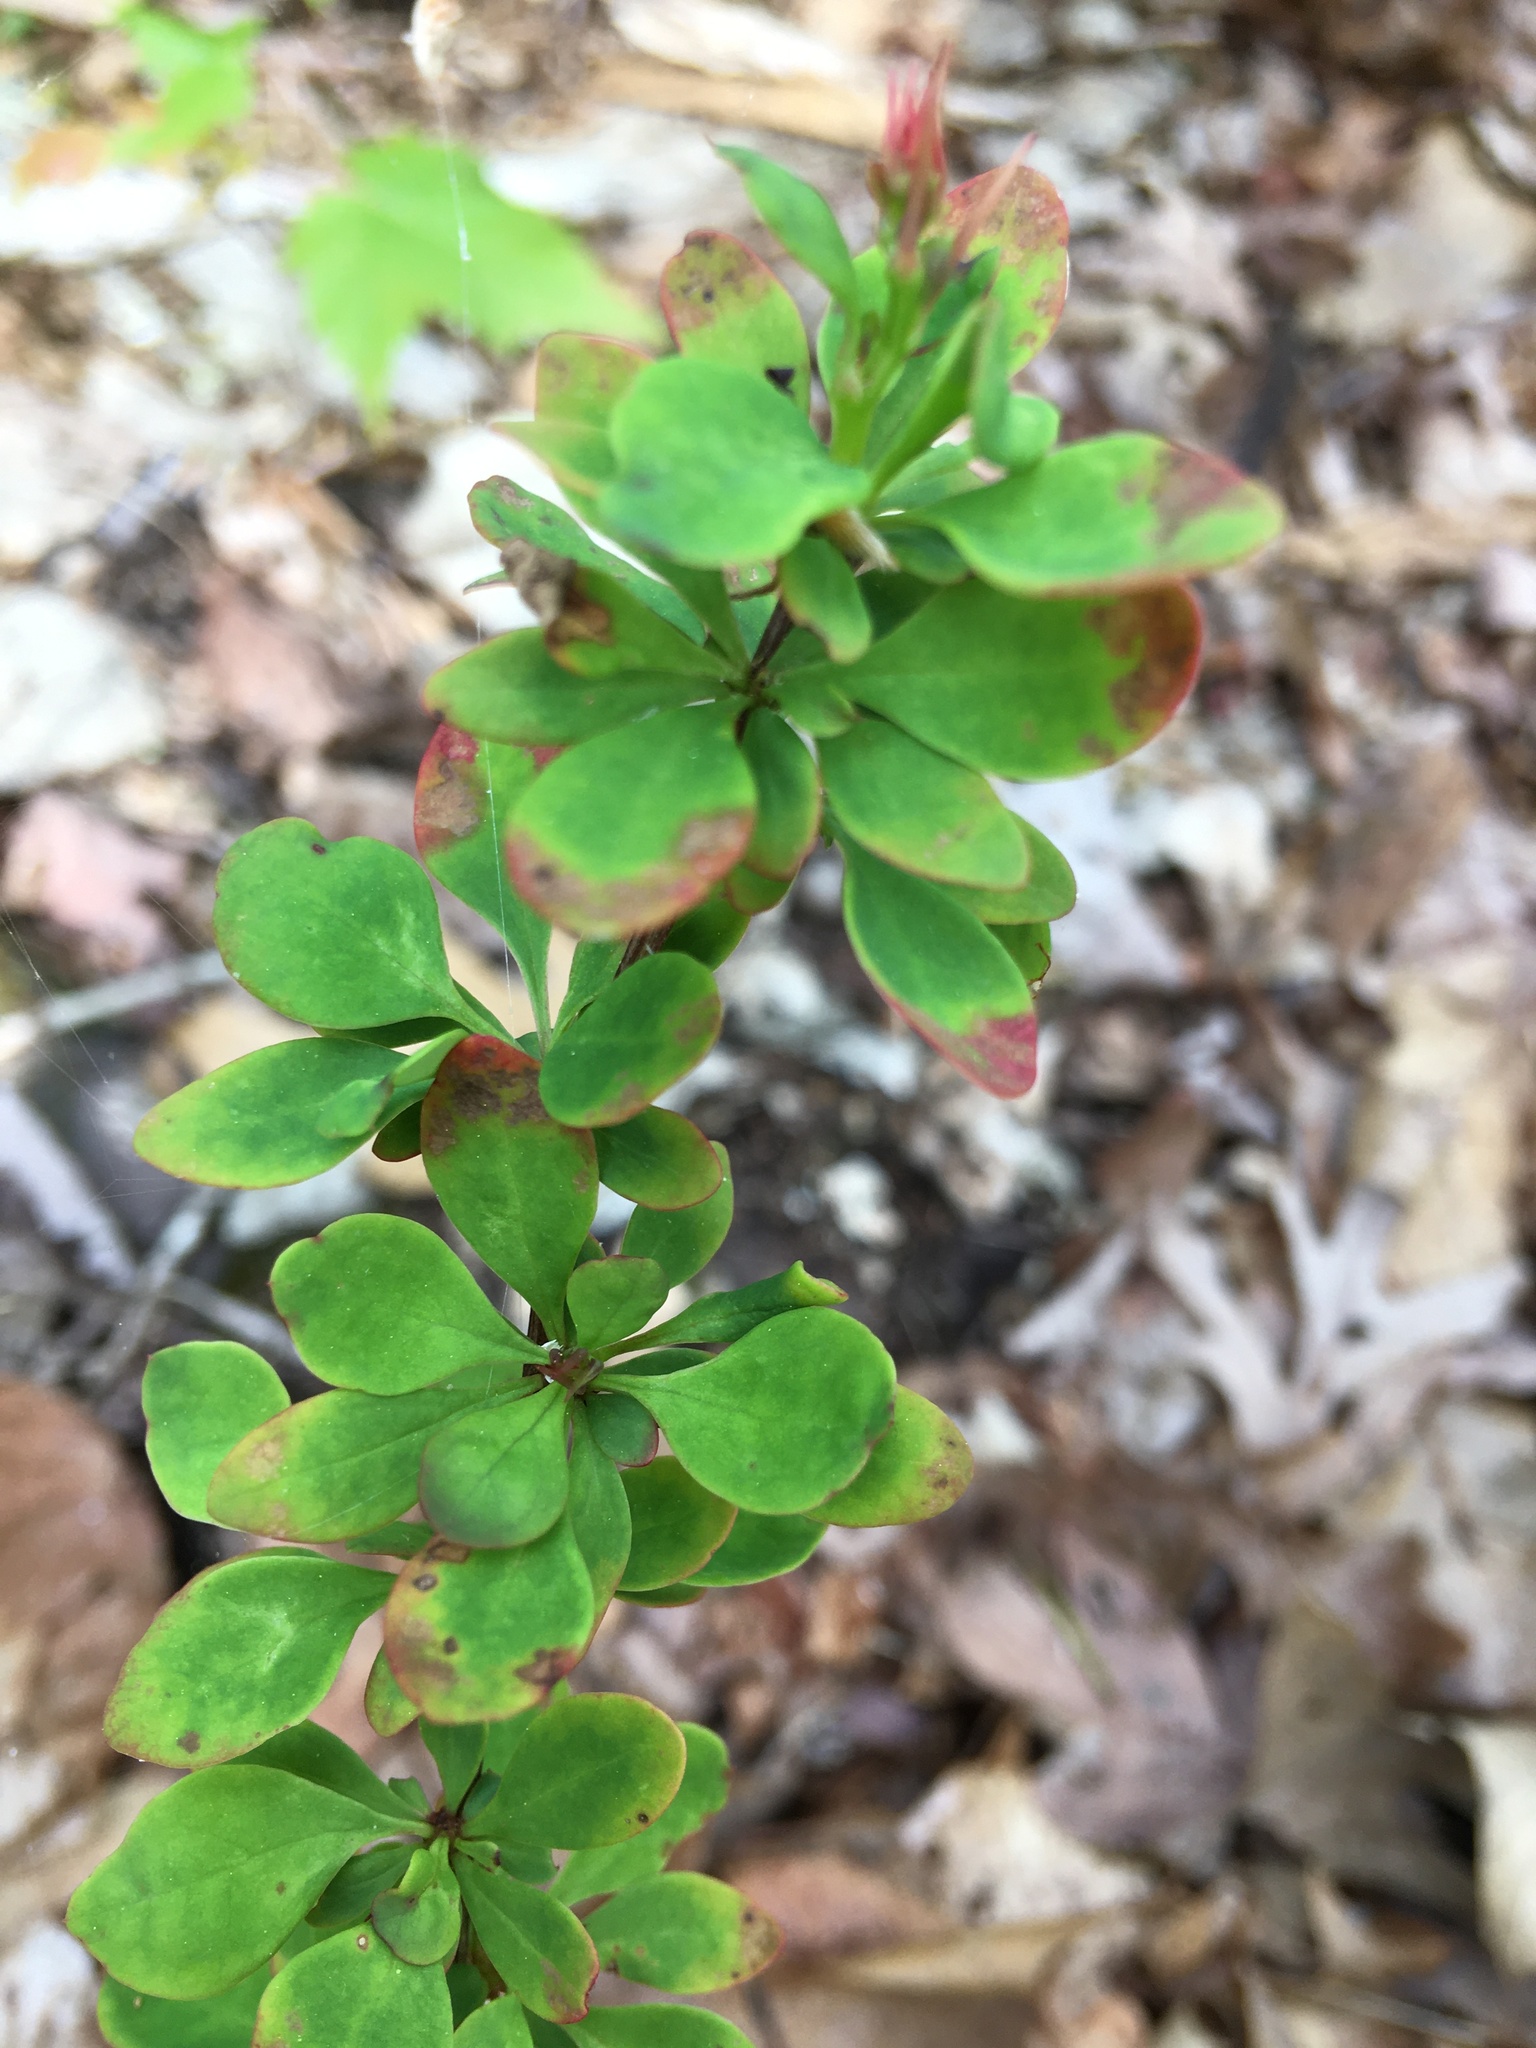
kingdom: Plantae
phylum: Tracheophyta
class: Magnoliopsida
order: Ranunculales
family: Berberidaceae
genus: Berberis
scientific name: Berberis thunbergii
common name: Japanese barberry
